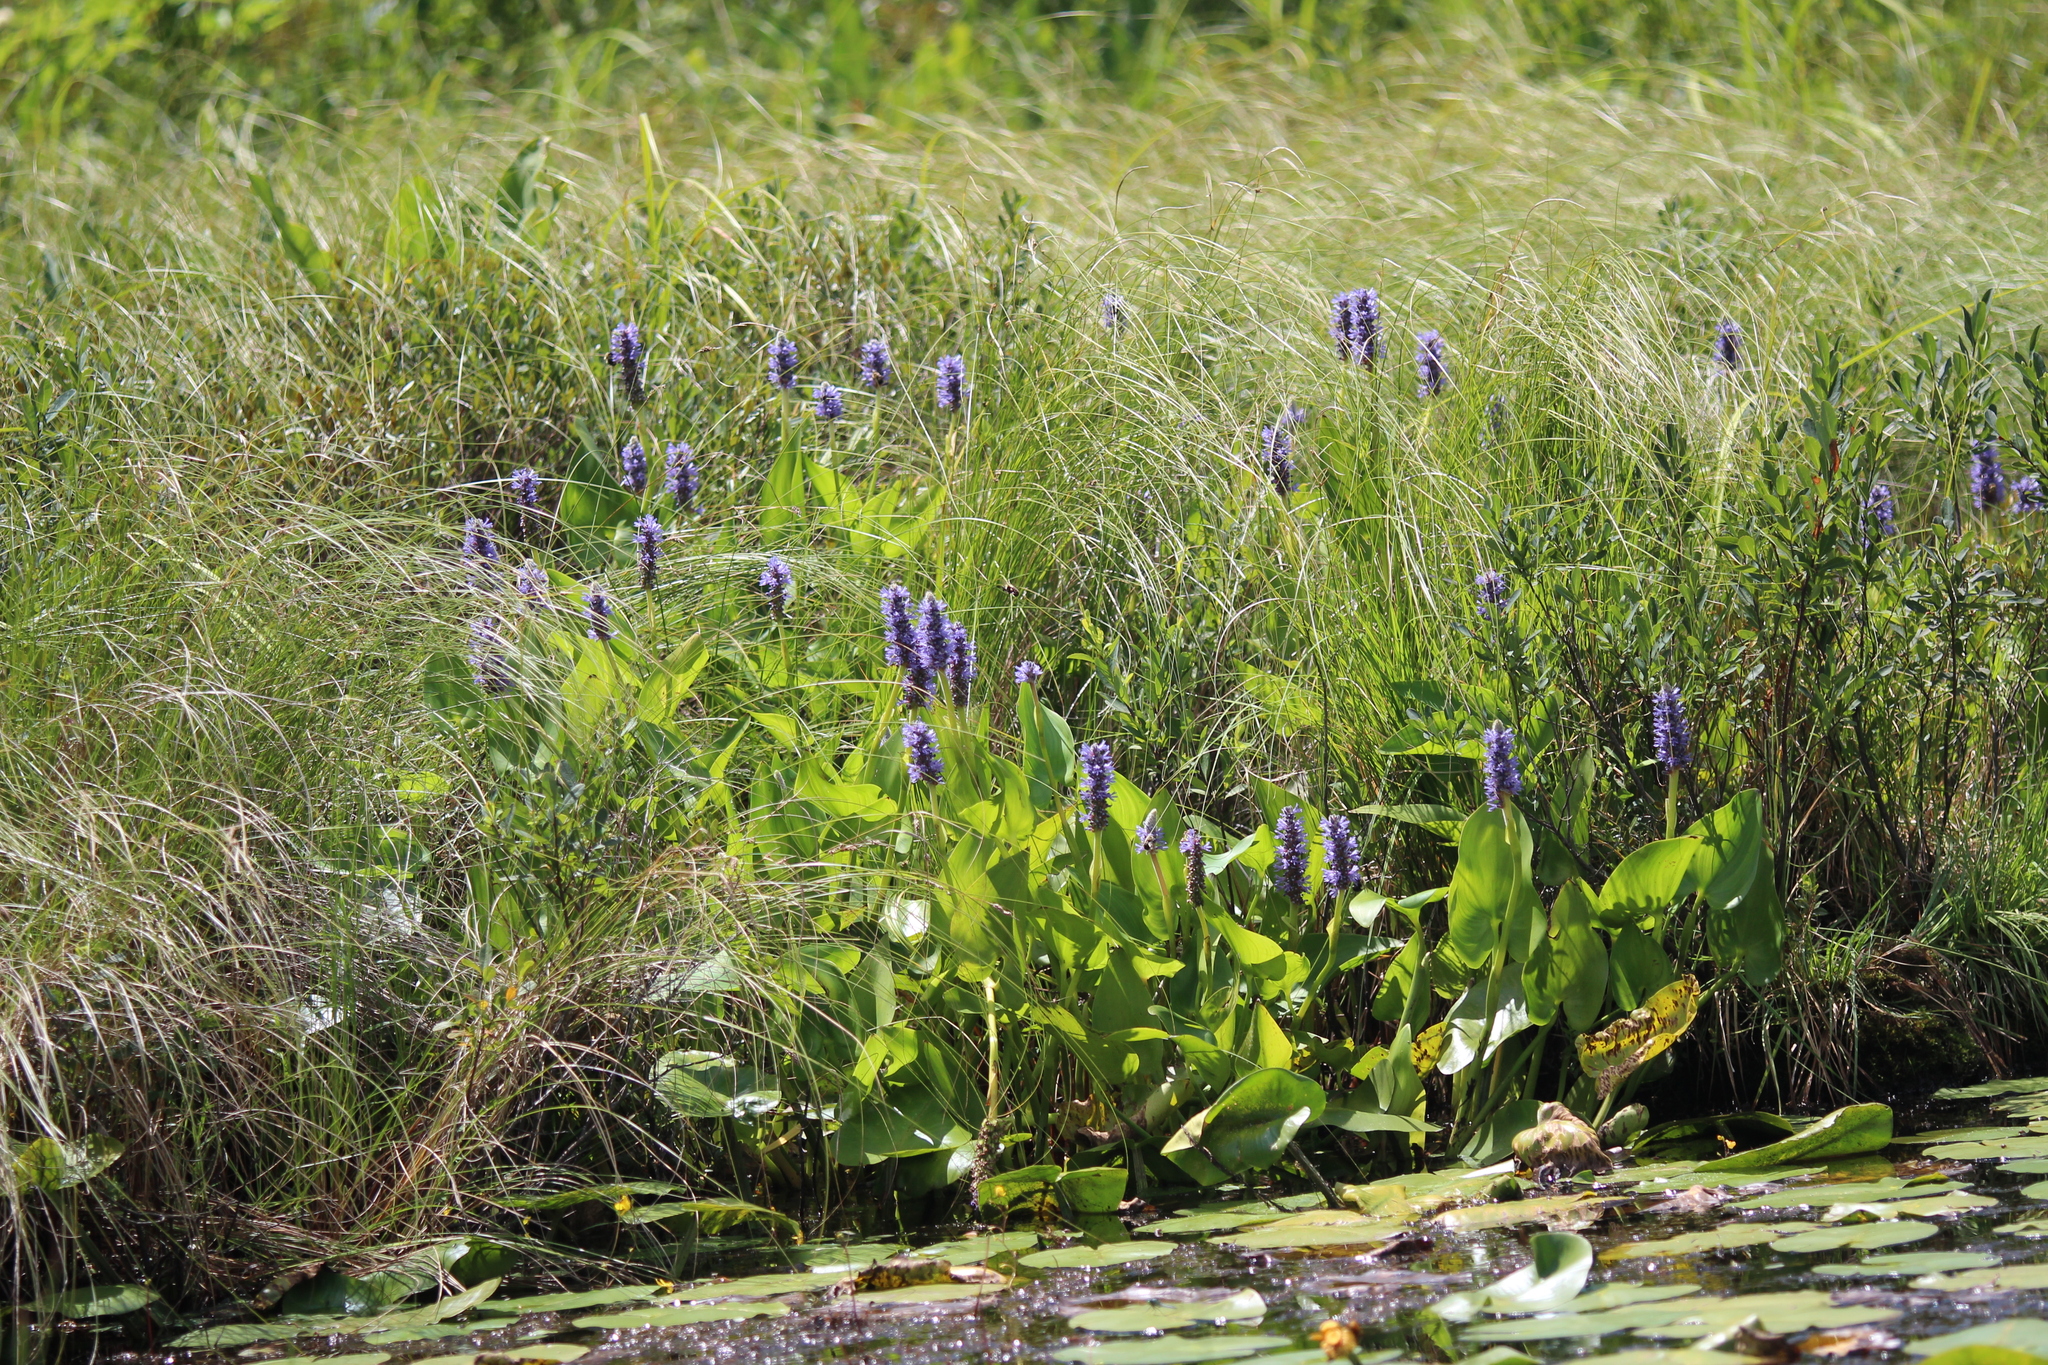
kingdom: Plantae
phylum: Tracheophyta
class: Liliopsida
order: Commelinales
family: Pontederiaceae
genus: Pontederia
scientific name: Pontederia cordata
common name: Pickerelweed
